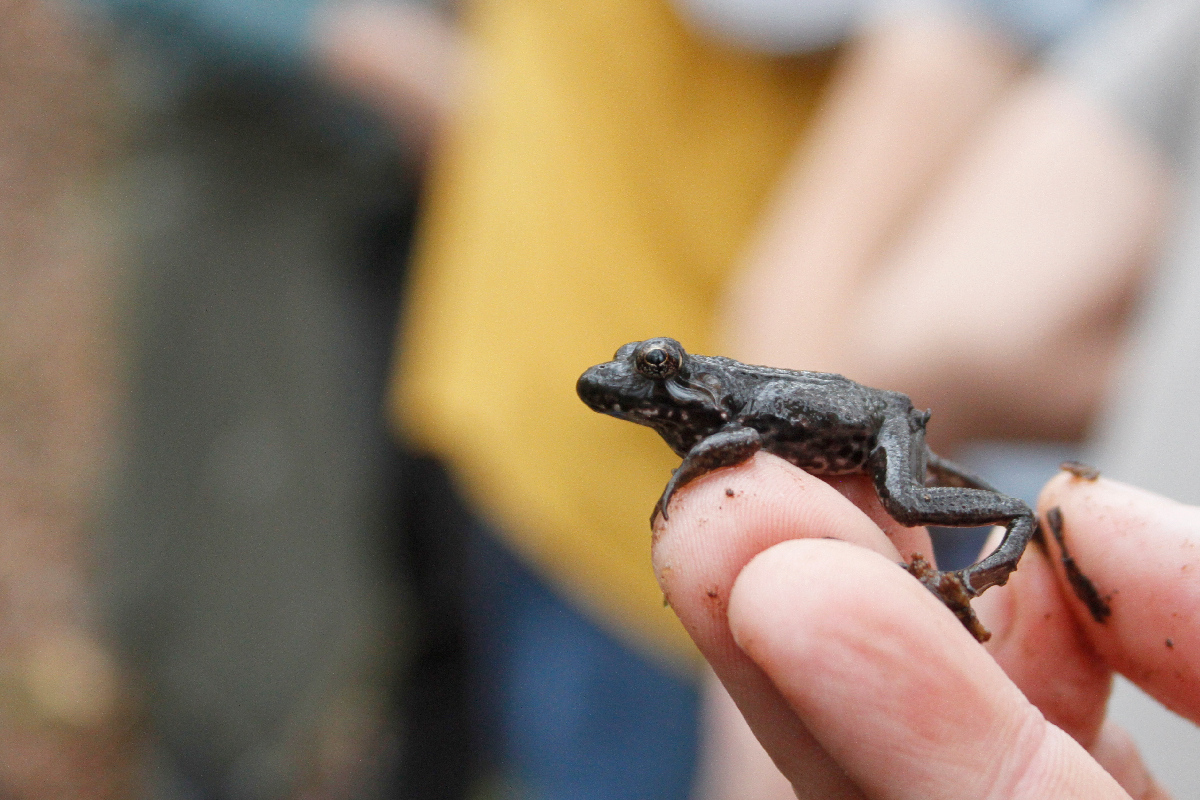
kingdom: Animalia
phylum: Chordata
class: Amphibia
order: Anura
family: Ranidae
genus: Lithobates
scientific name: Lithobates clamitans
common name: Green frog
